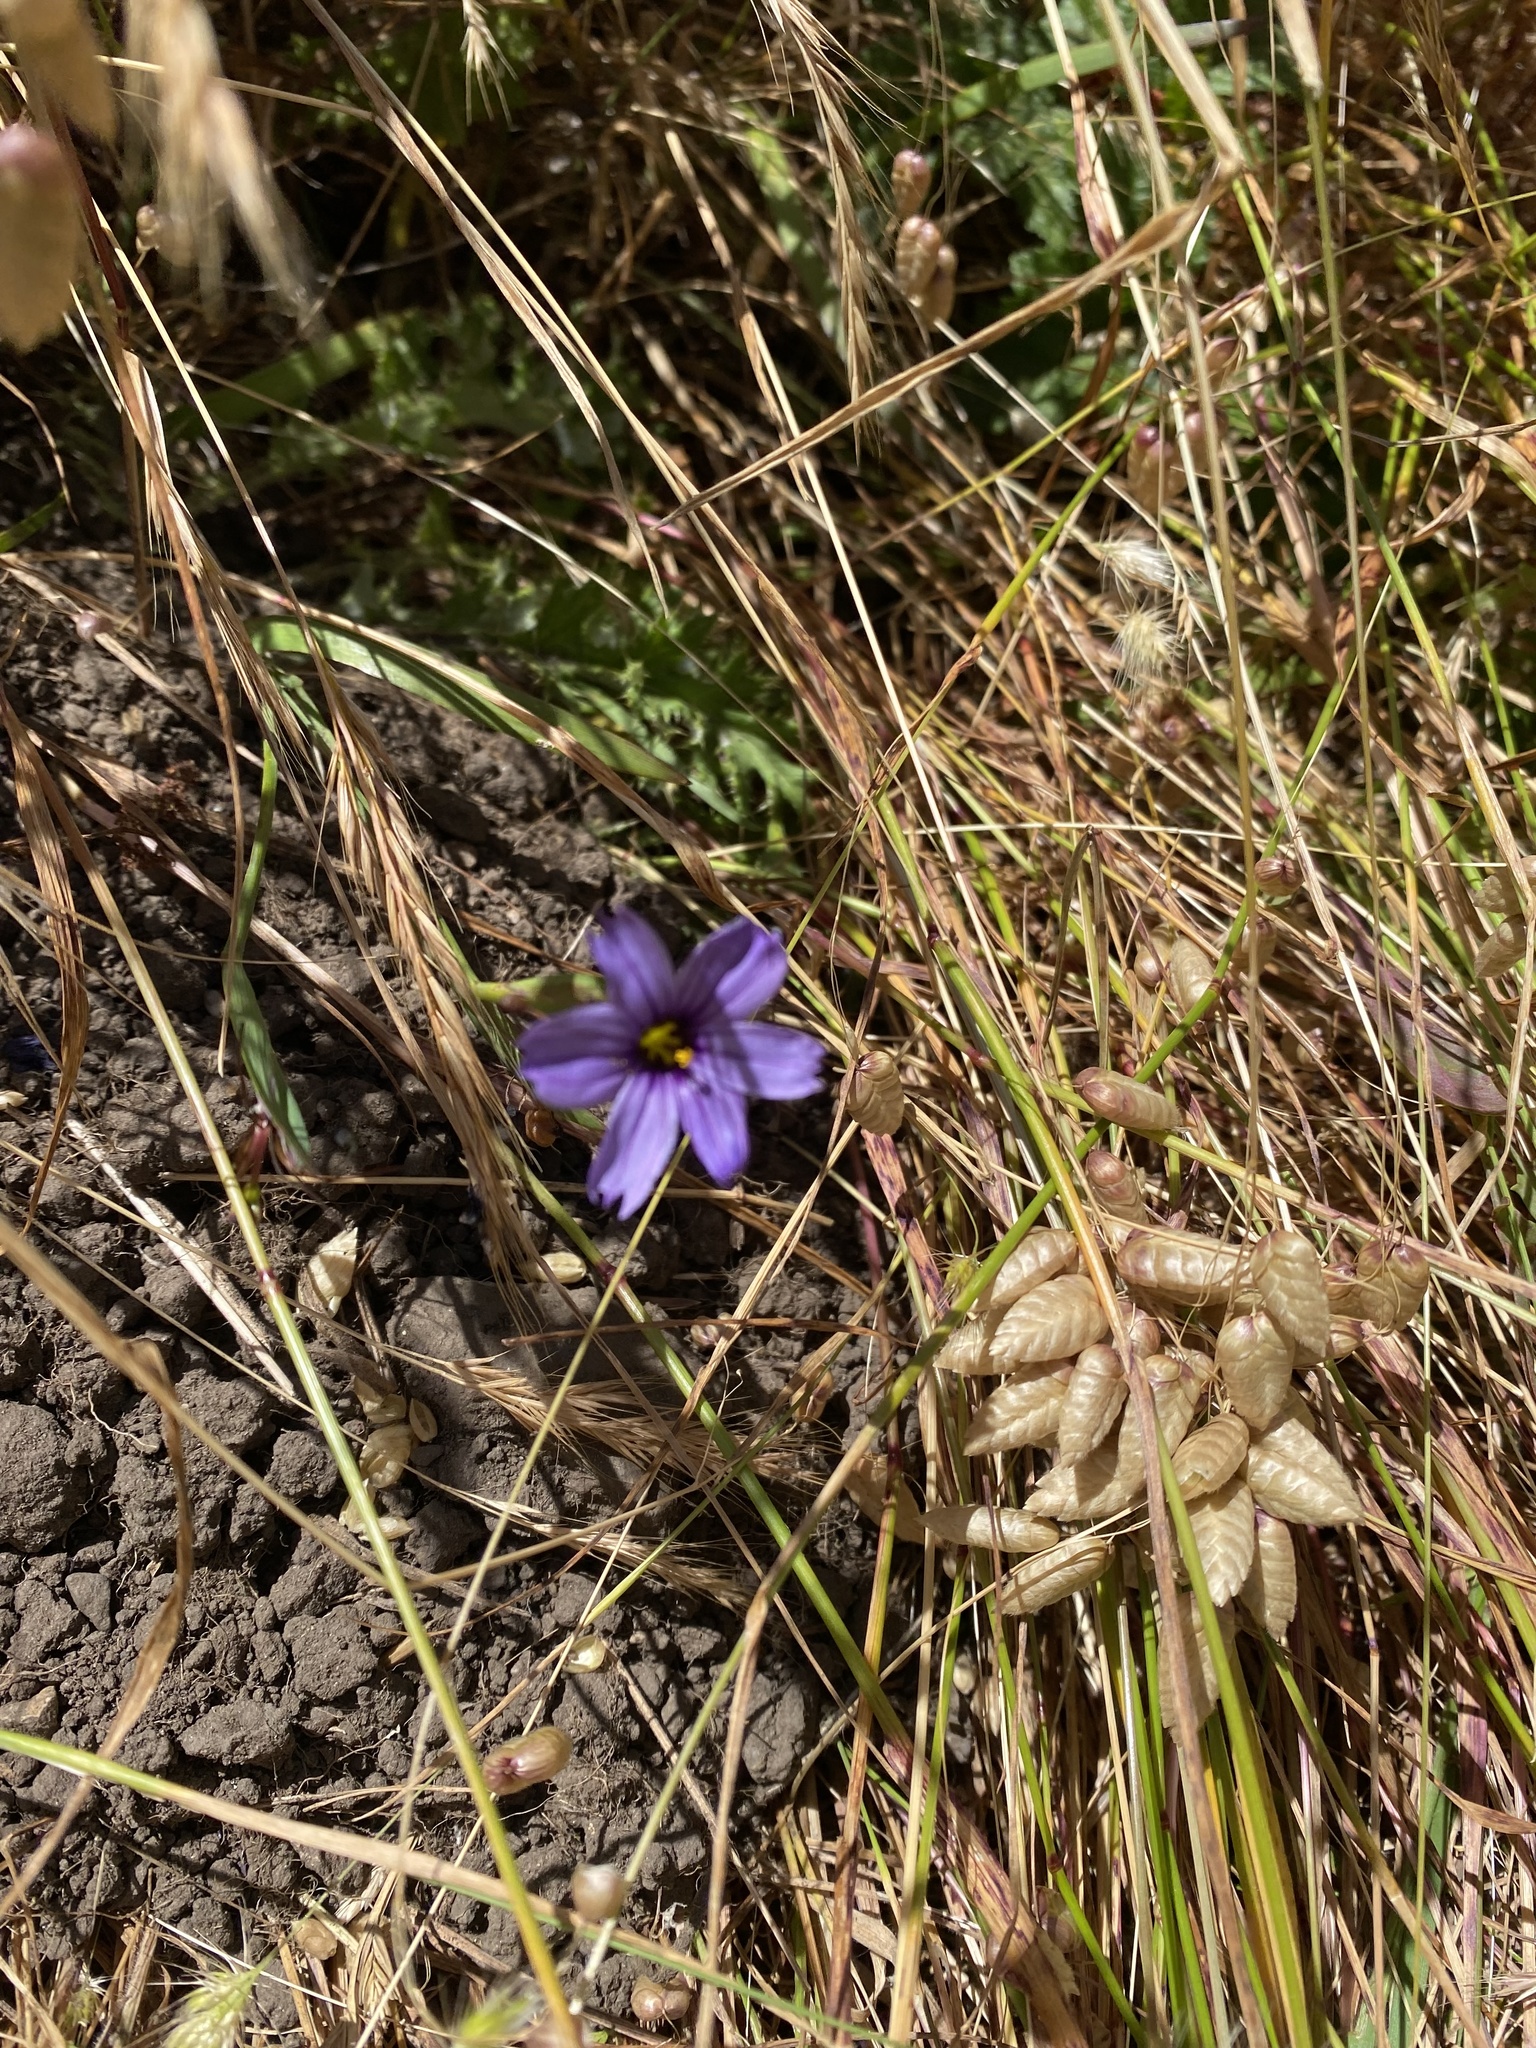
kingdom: Plantae
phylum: Tracheophyta
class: Liliopsida
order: Asparagales
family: Iridaceae
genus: Sisyrinchium
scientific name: Sisyrinchium bellum
